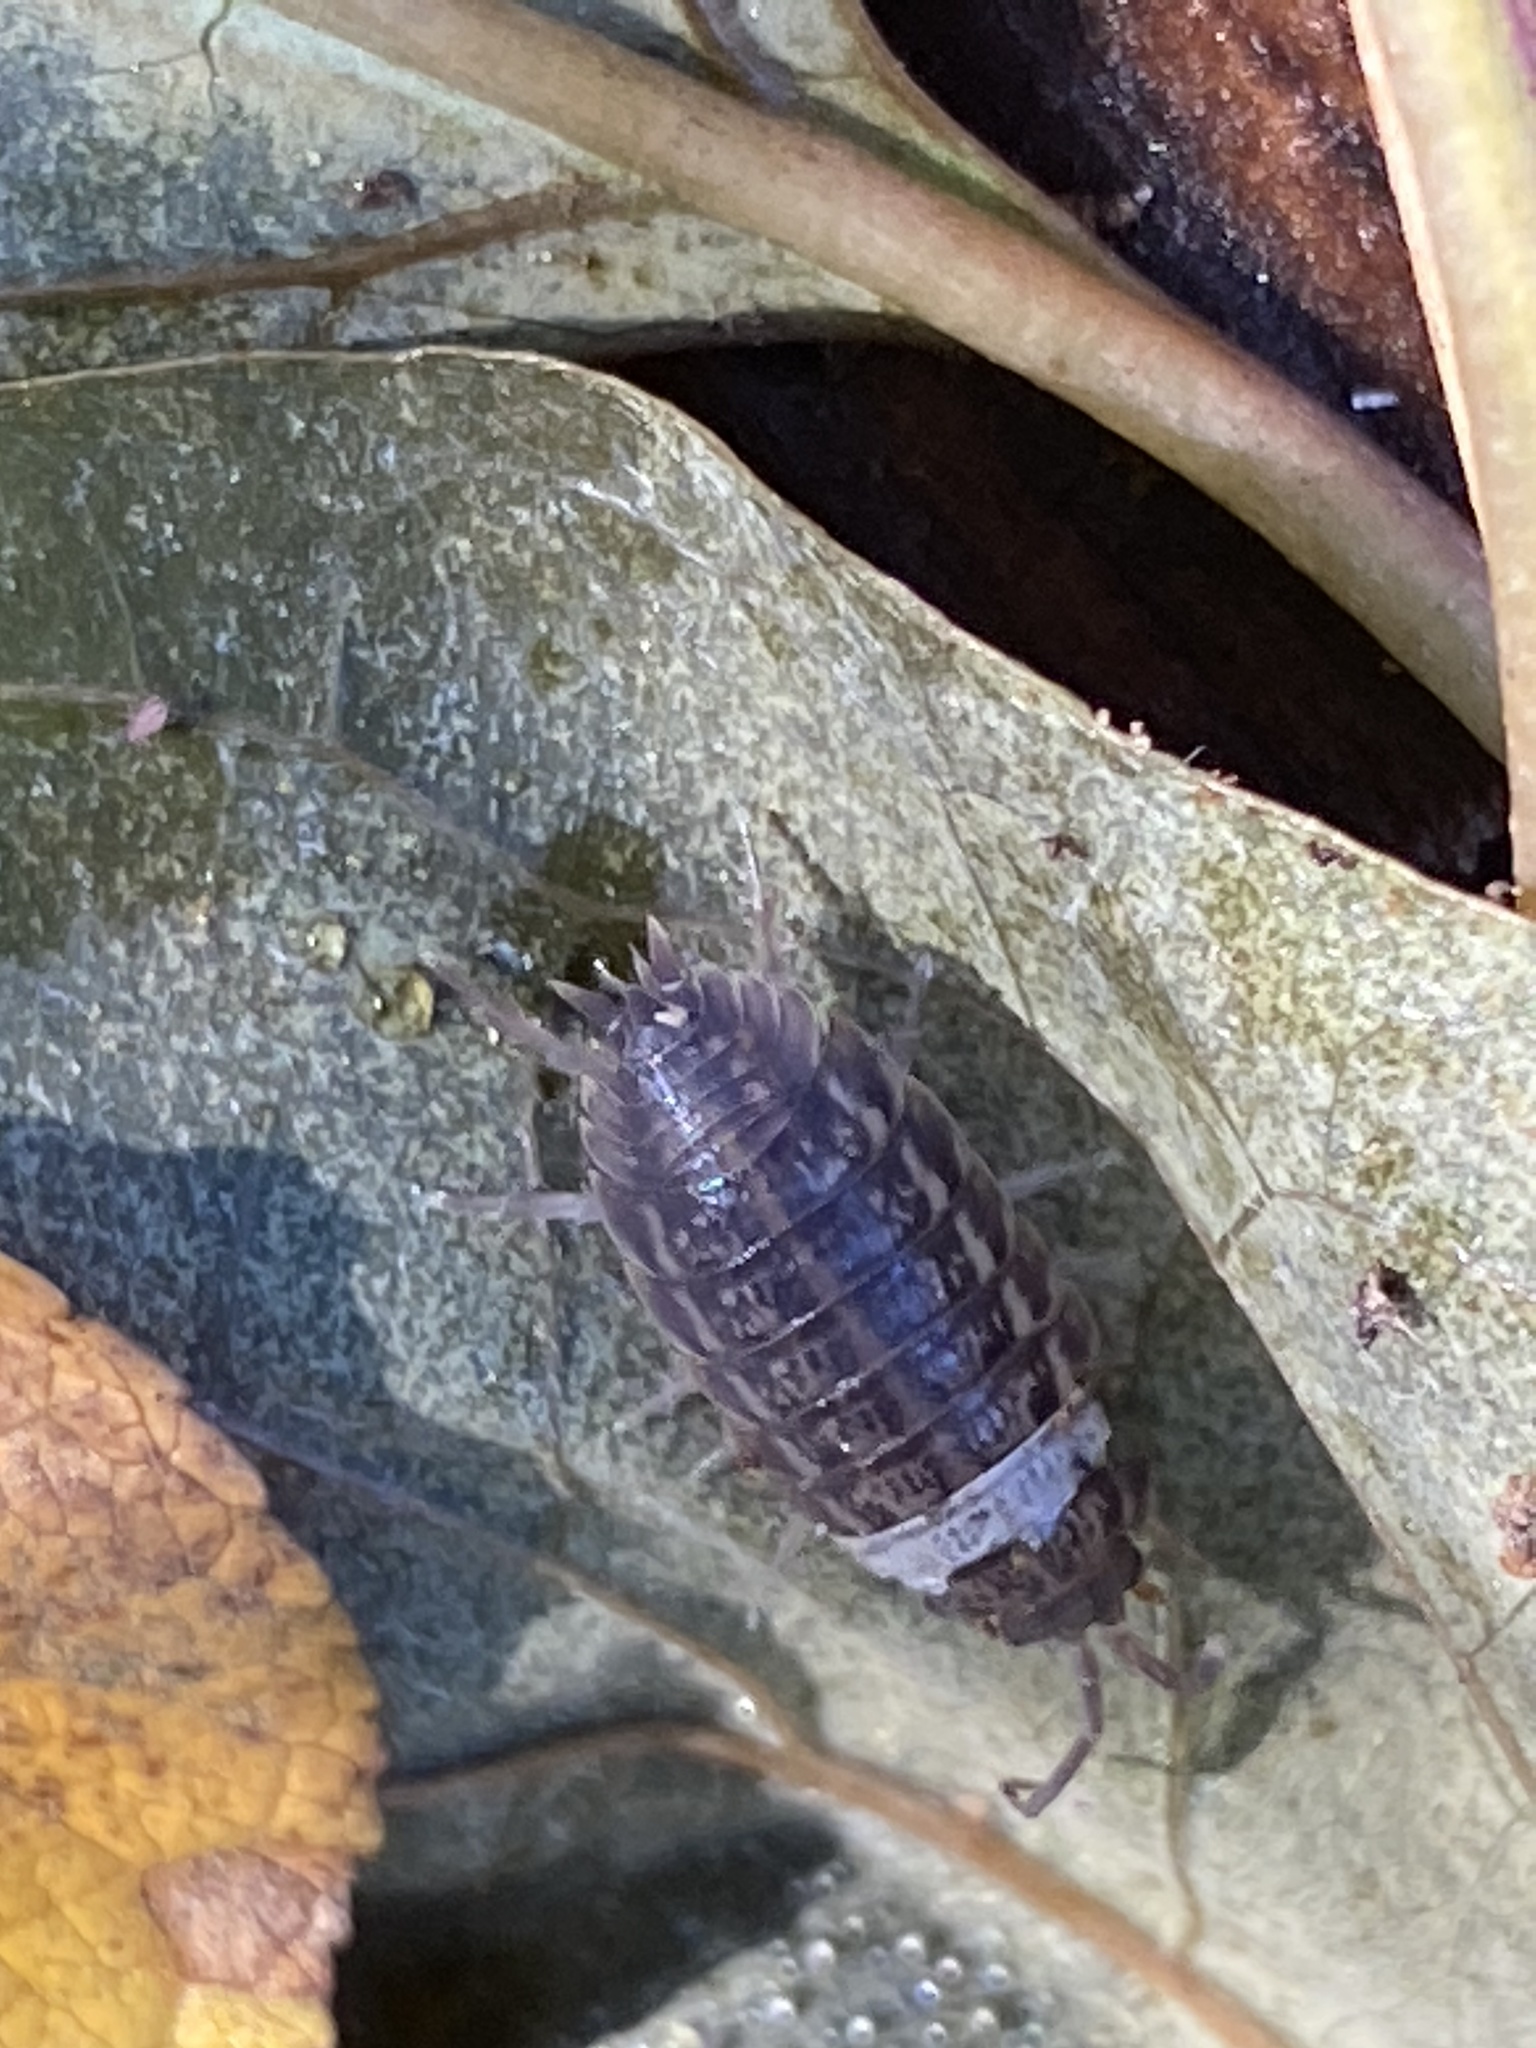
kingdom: Animalia
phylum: Arthropoda
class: Malacostraca
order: Isopoda
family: Trachelipodidae
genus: Trachelipus
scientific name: Trachelipus rathkii
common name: Isopod
